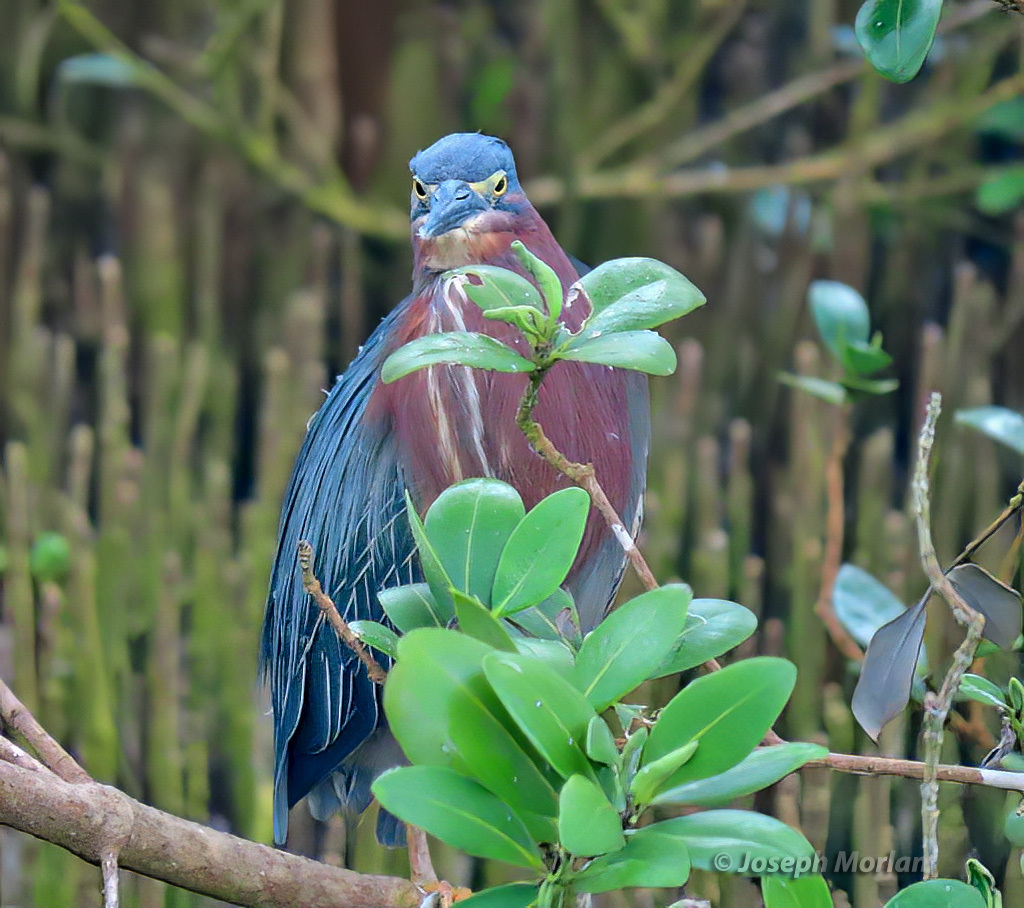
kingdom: Animalia
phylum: Chordata
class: Aves
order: Pelecaniformes
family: Ardeidae
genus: Butorides
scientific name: Butorides virescens
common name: Green heron
